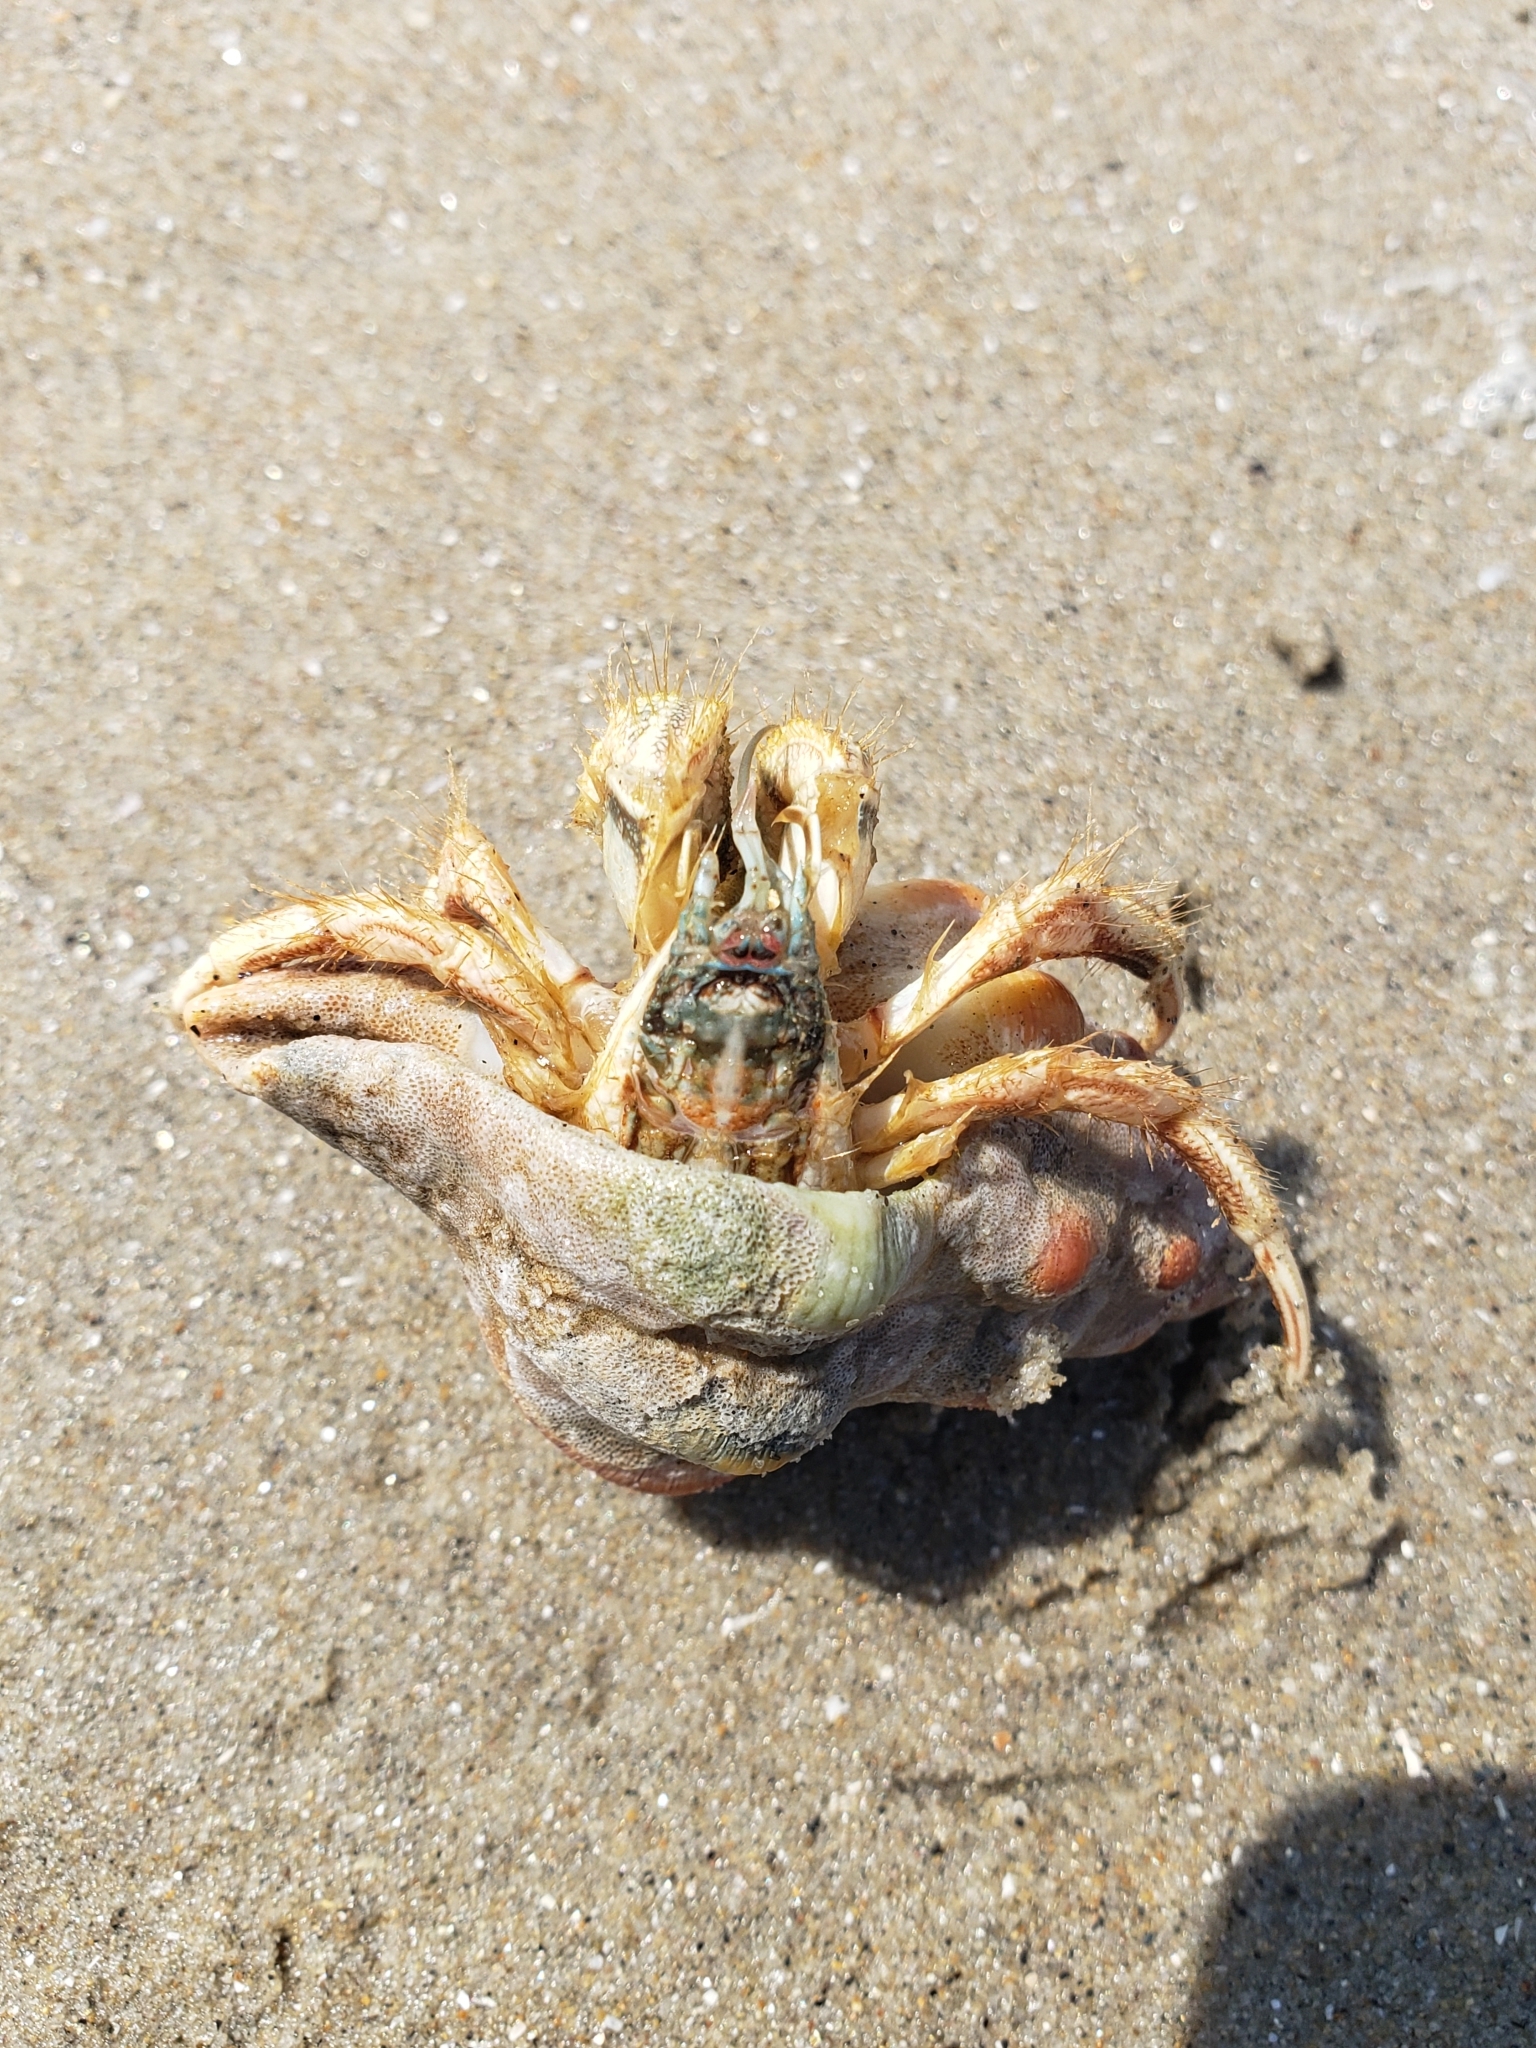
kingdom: Animalia
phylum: Arthropoda
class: Malacostraca
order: Decapoda
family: Diogenidae
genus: Isocheles
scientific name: Isocheles pilosus
